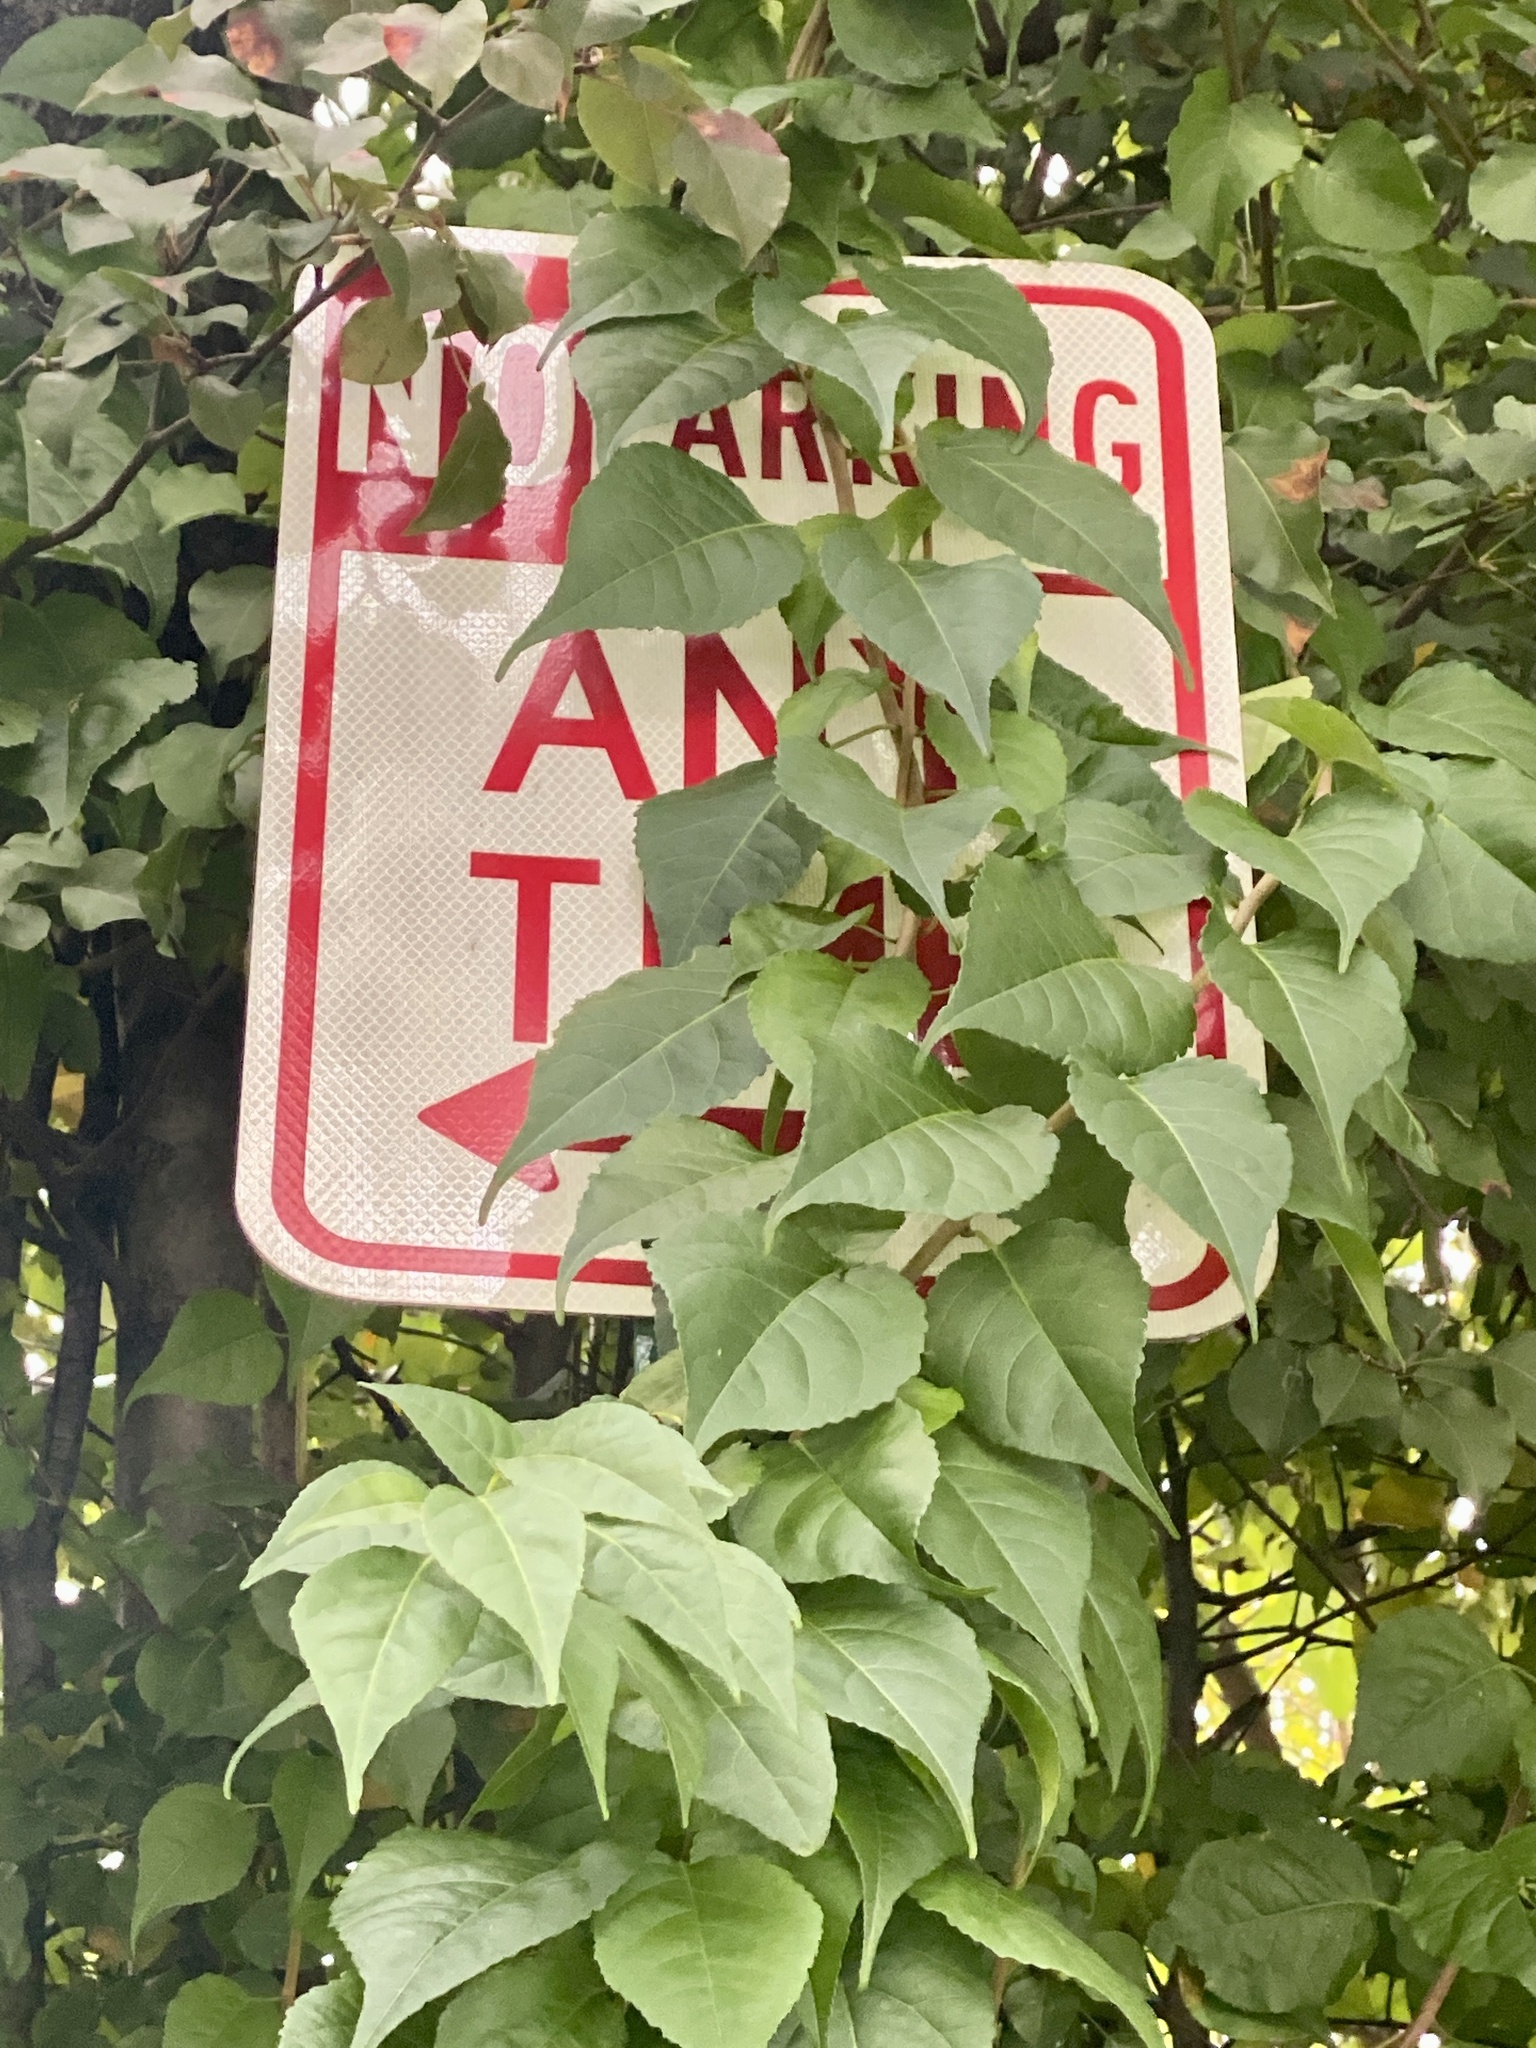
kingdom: Plantae
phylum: Tracheophyta
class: Magnoliopsida
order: Celastrales
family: Celastraceae
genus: Celastrus
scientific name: Celastrus orbiculatus
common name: Oriental bittersweet
